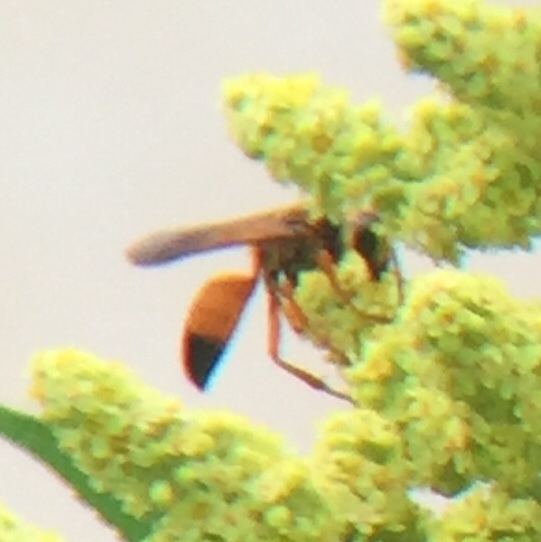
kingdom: Animalia
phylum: Arthropoda
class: Insecta
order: Hymenoptera
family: Sphecidae
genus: Sphex
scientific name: Sphex ichneumoneus
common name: Great golden digger wasp
